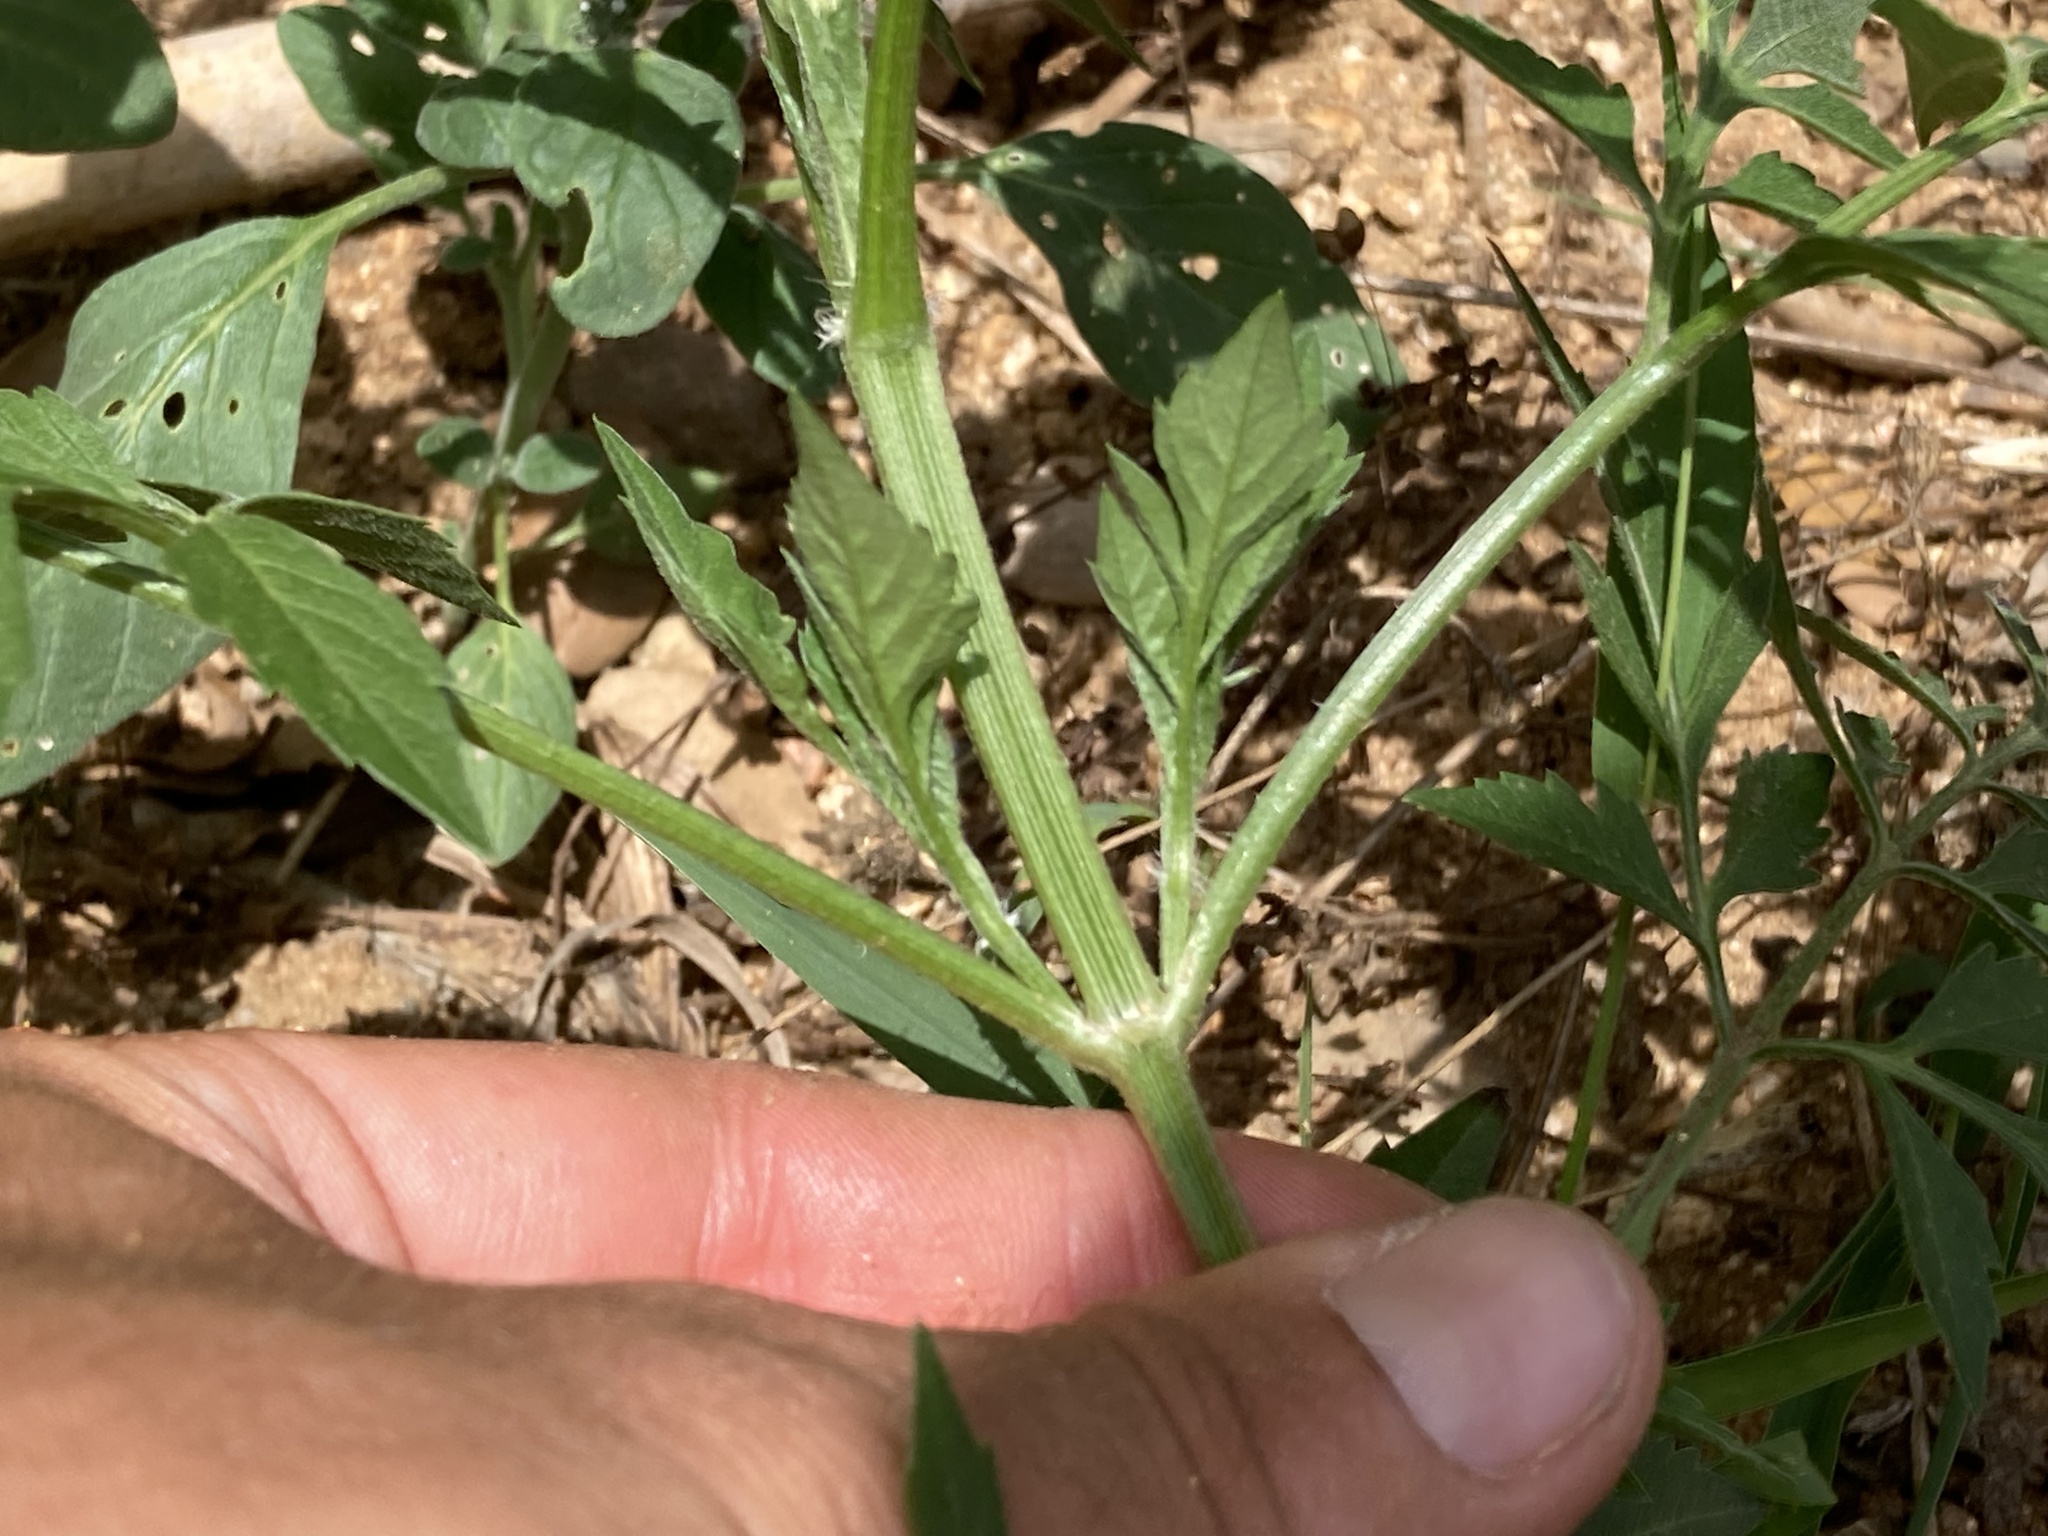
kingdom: Plantae
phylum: Tracheophyta
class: Magnoliopsida
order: Asterales
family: Asteraceae
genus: Bidens
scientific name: Bidens subalternans
